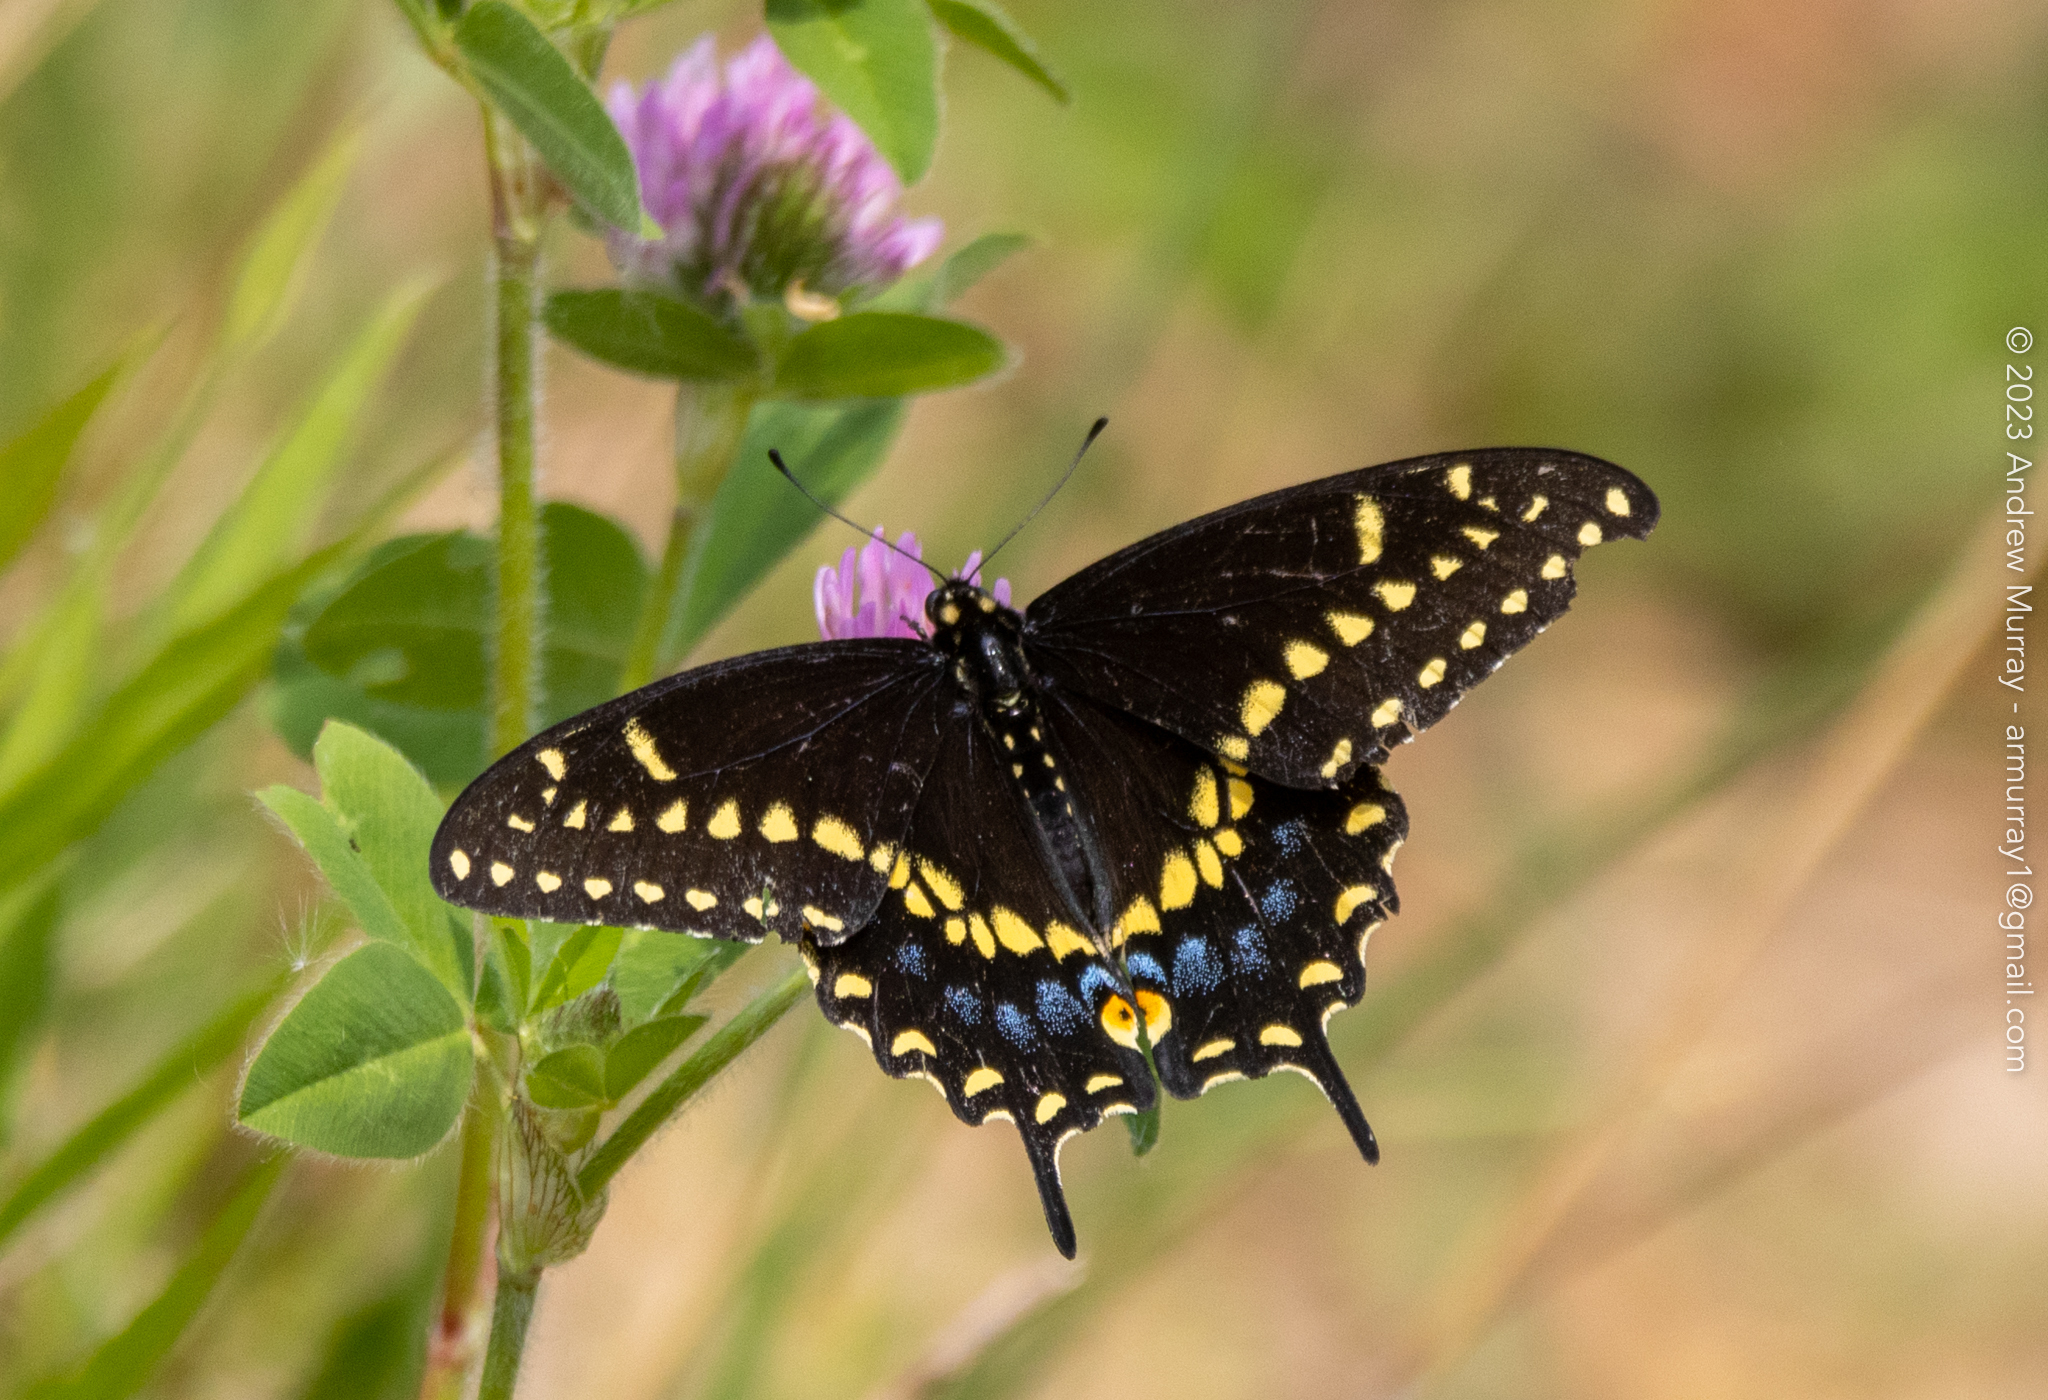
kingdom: Animalia
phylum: Arthropoda
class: Insecta
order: Lepidoptera
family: Papilionidae
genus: Papilio
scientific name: Papilio polyxenes
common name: Black swallowtail
